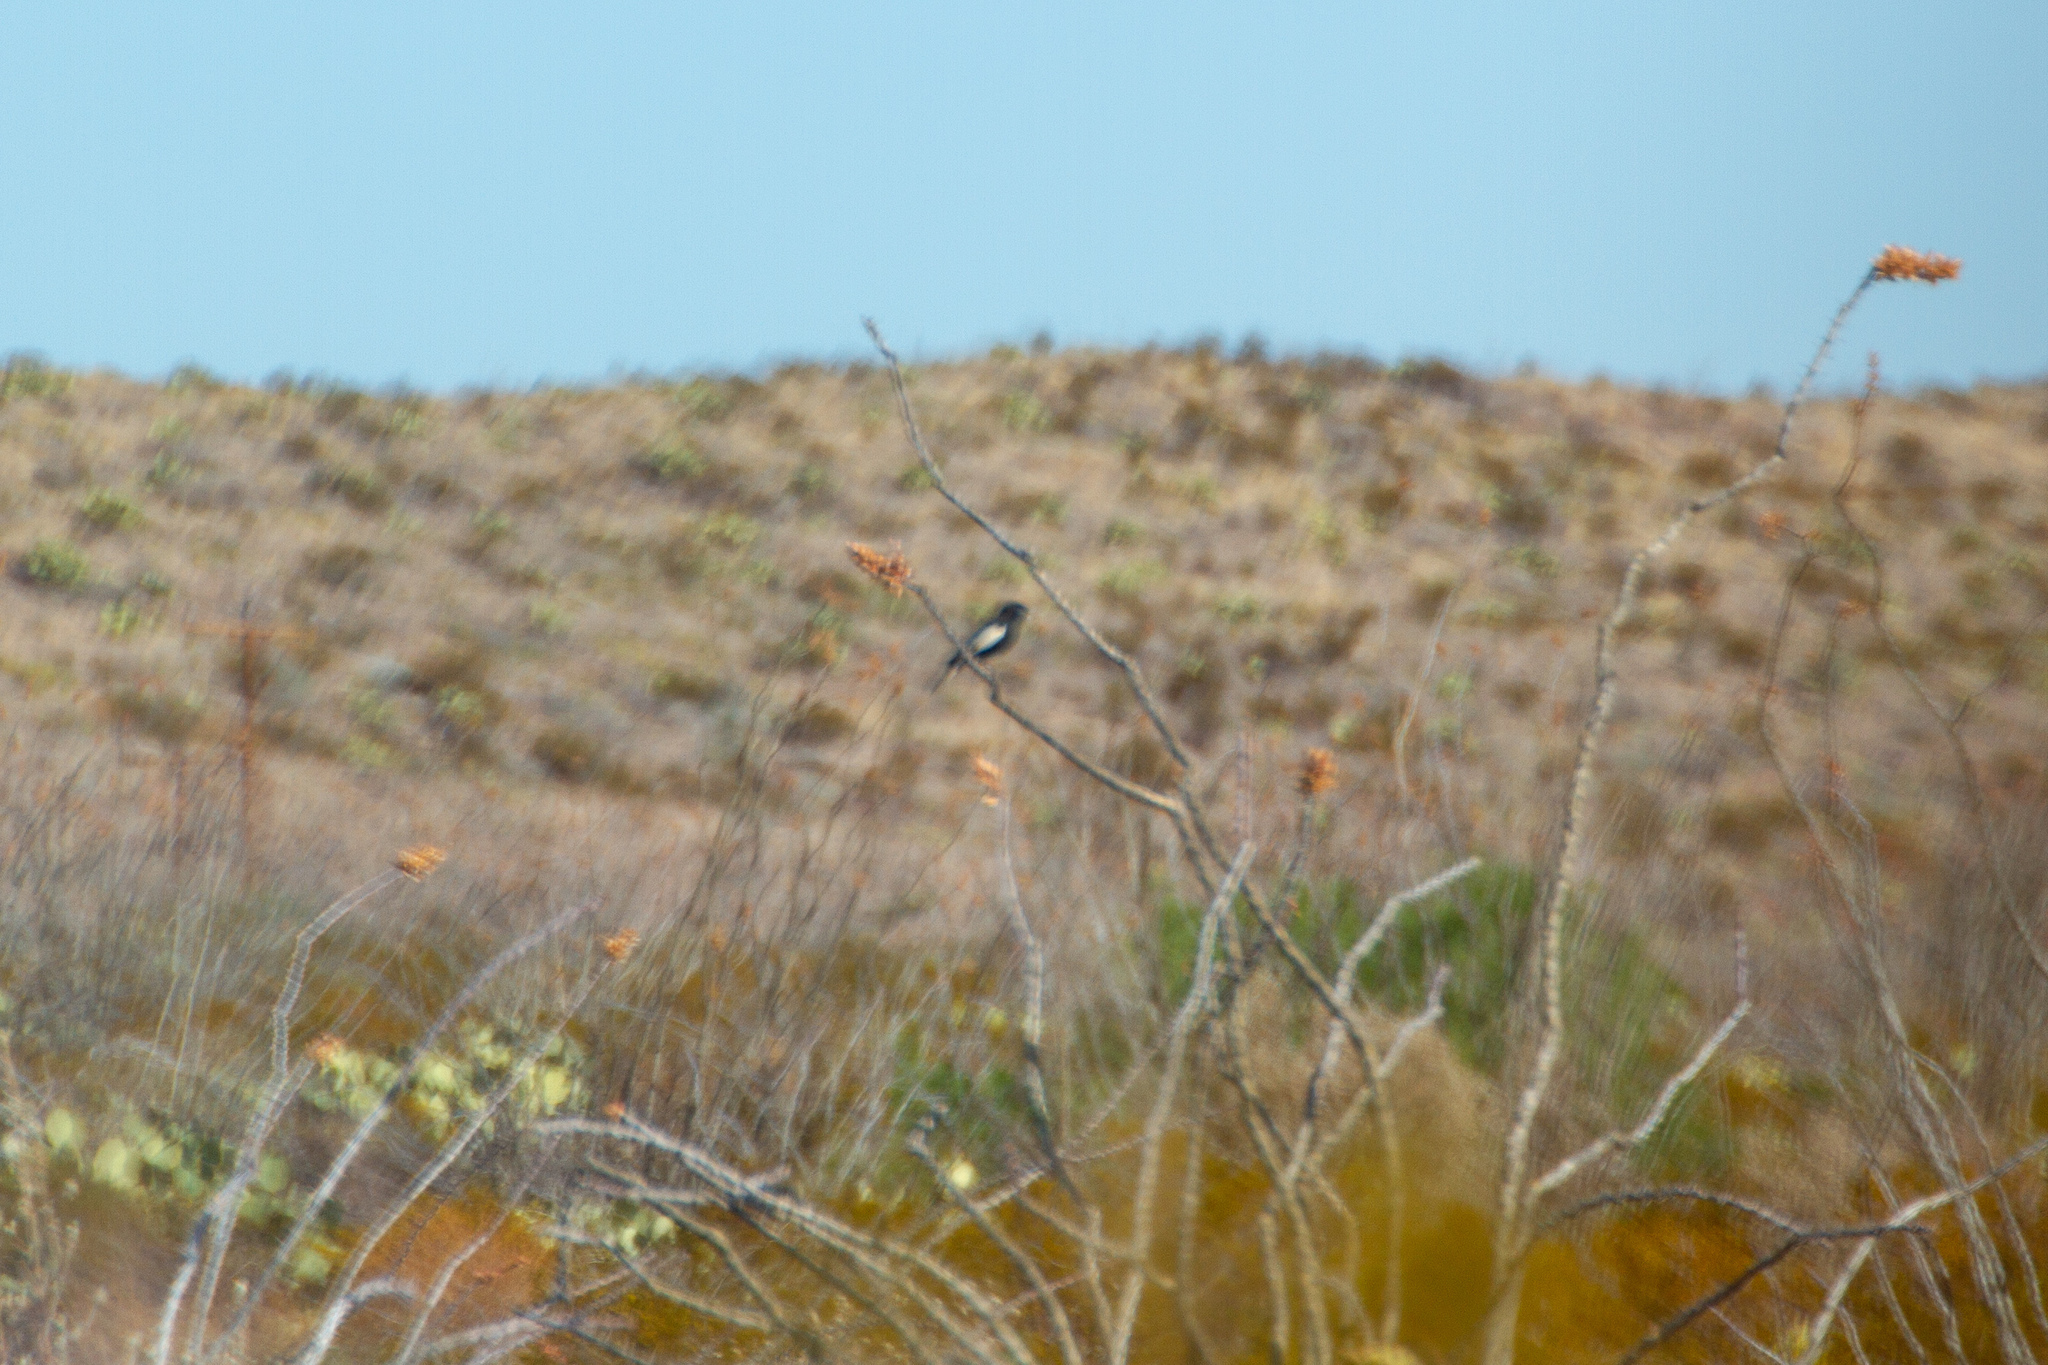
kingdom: Animalia
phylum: Chordata
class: Aves
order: Passeriformes
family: Passerellidae
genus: Calamospiza
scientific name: Calamospiza melanocorys
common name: Lark bunting
